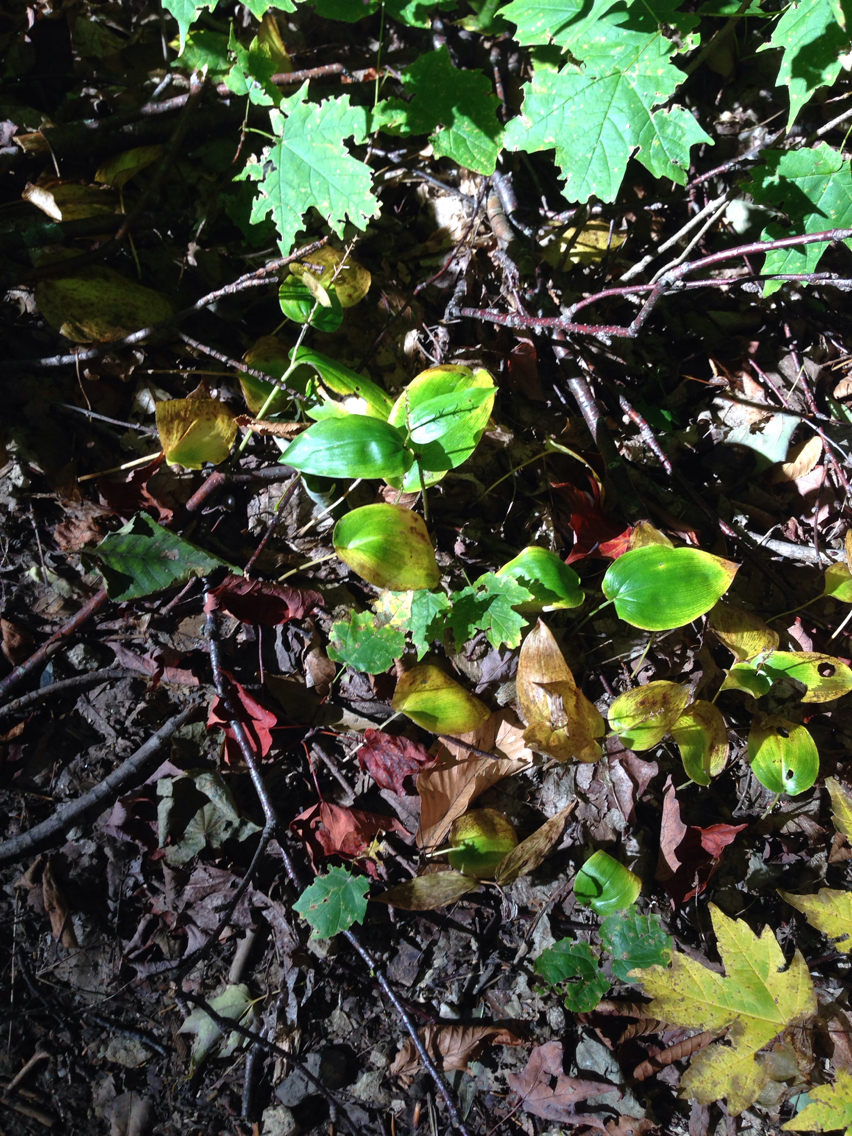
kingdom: Plantae
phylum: Tracheophyta
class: Liliopsida
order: Asparagales
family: Asparagaceae
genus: Maianthemum
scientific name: Maianthemum canadense
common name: False lily-of-the-valley
